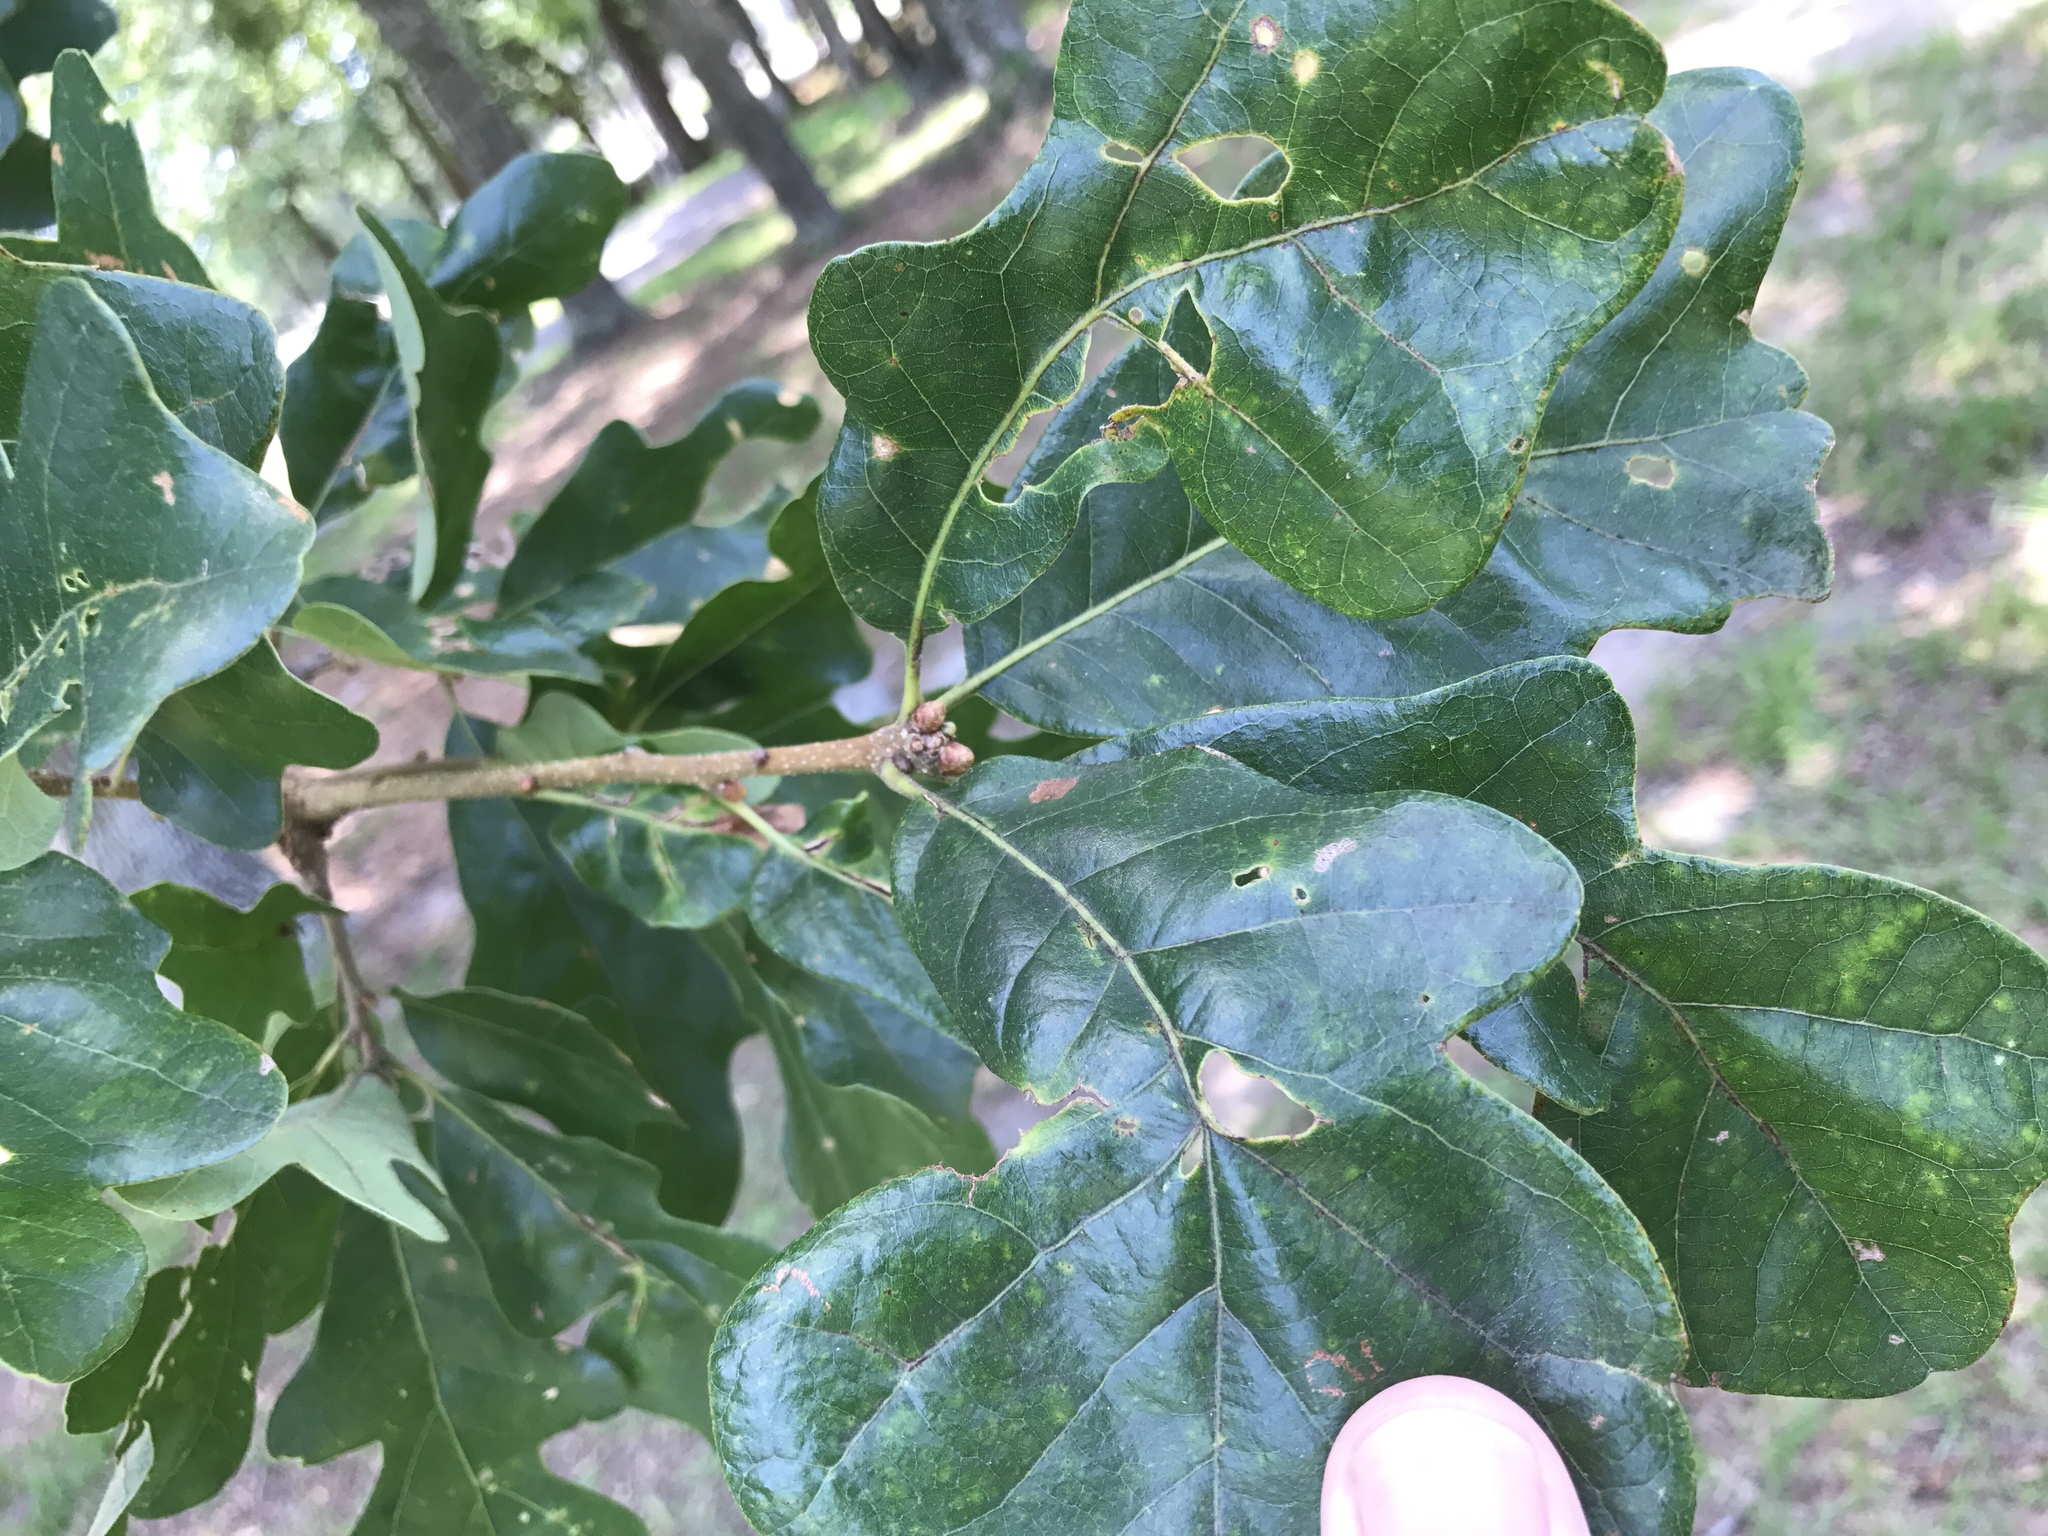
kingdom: Plantae
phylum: Tracheophyta
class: Magnoliopsida
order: Fagales
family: Fagaceae
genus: Quercus
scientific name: Quercus margaretiae
